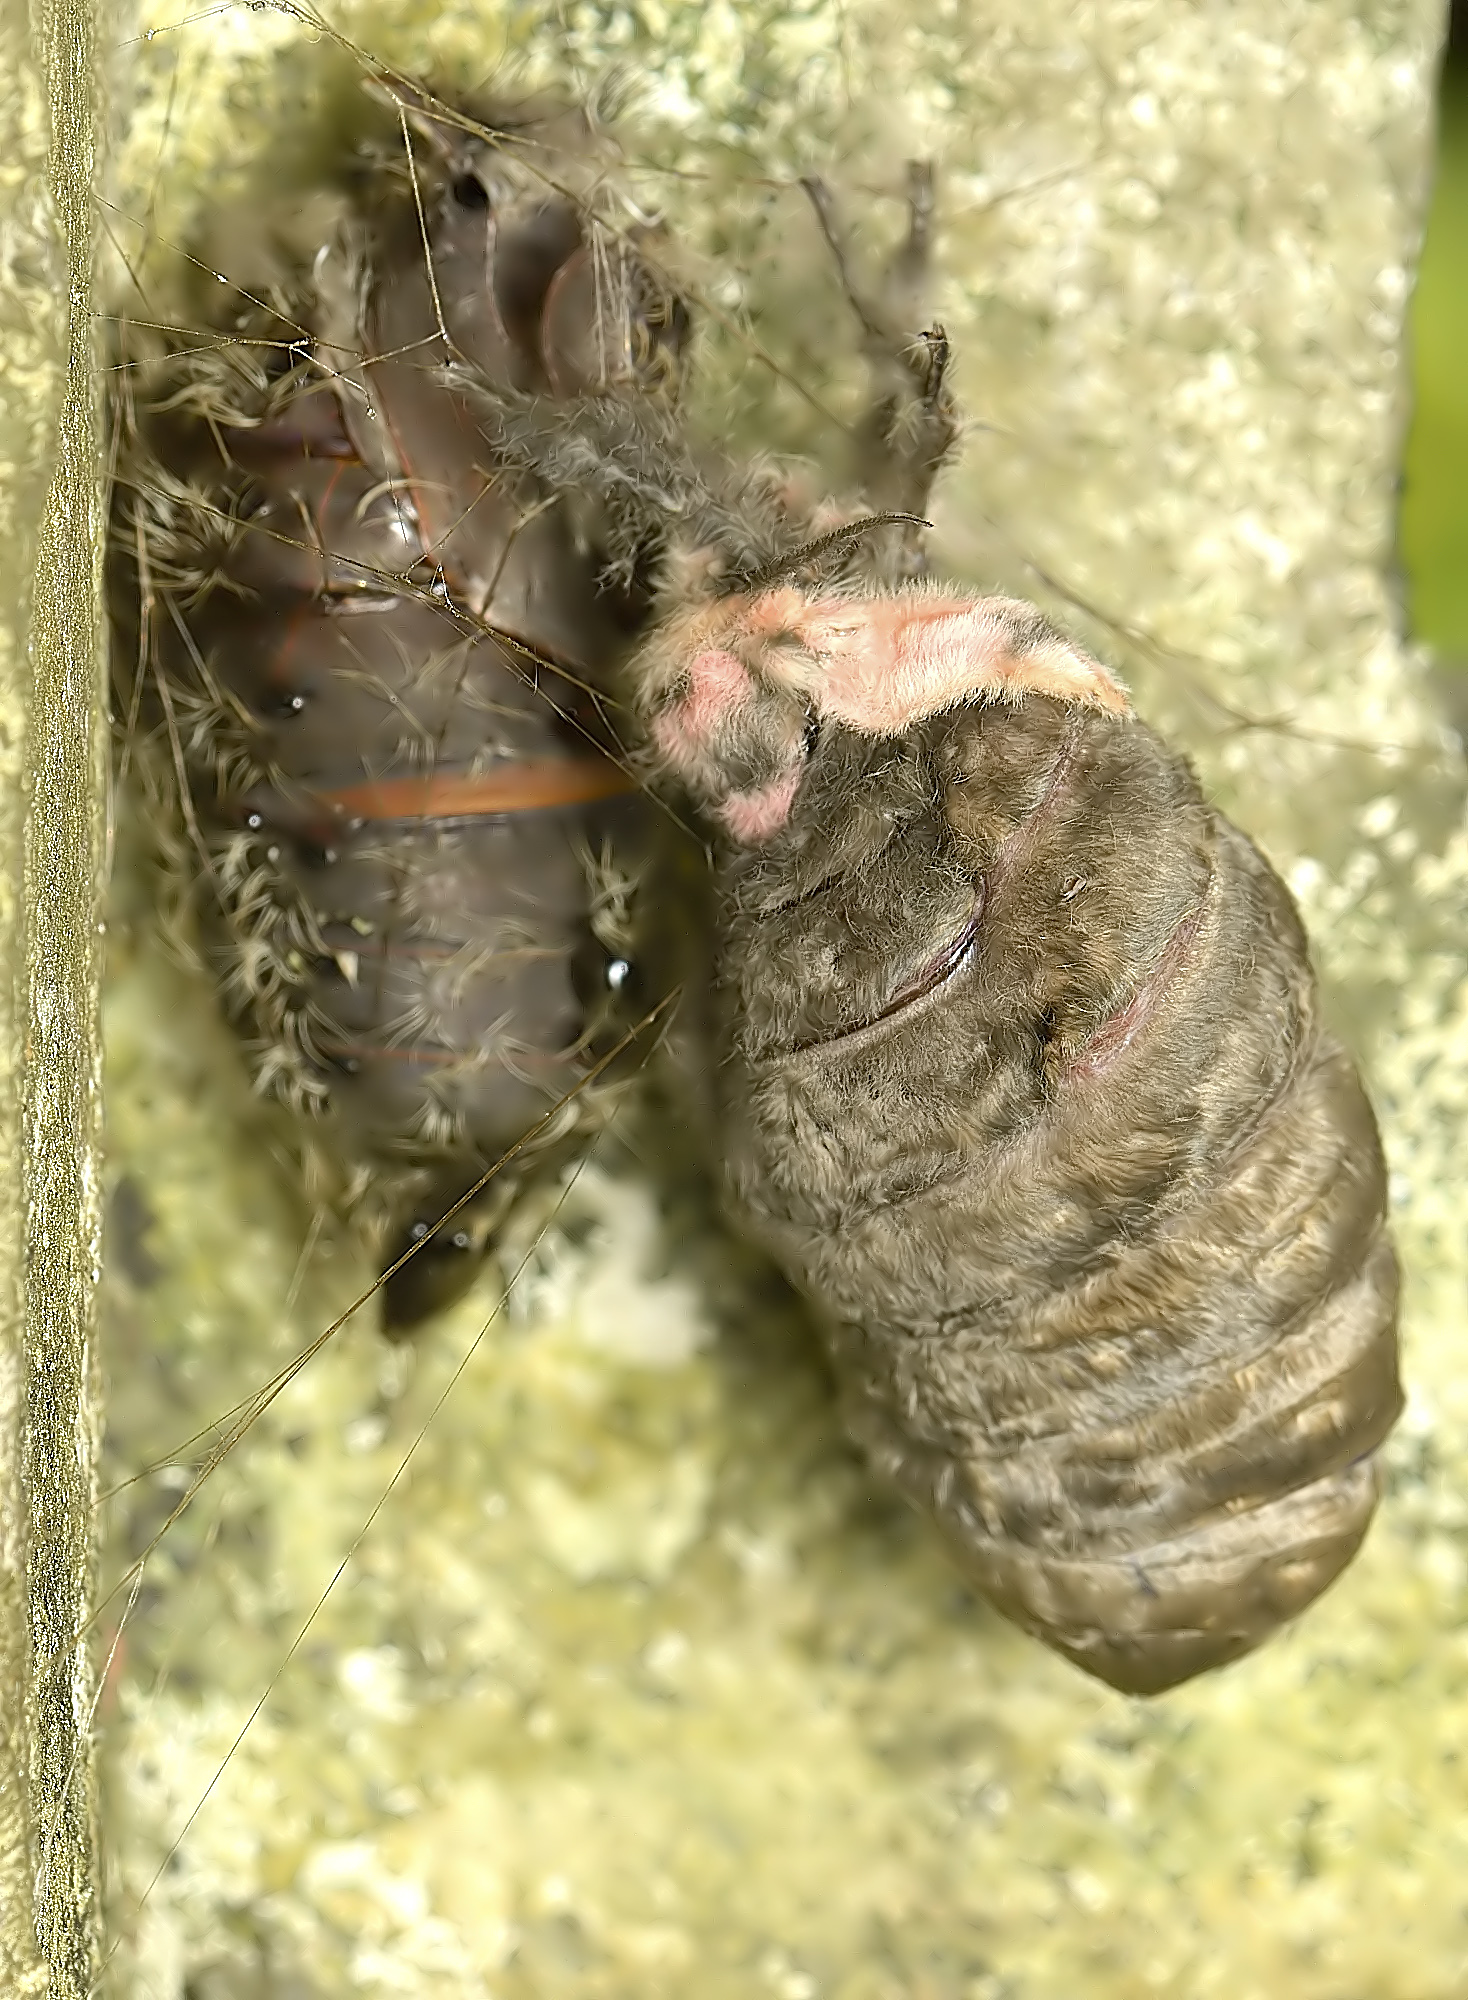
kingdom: Animalia
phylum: Arthropoda
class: Insecta
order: Lepidoptera
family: Erebidae
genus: Lymantria
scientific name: Lymantria ampla
